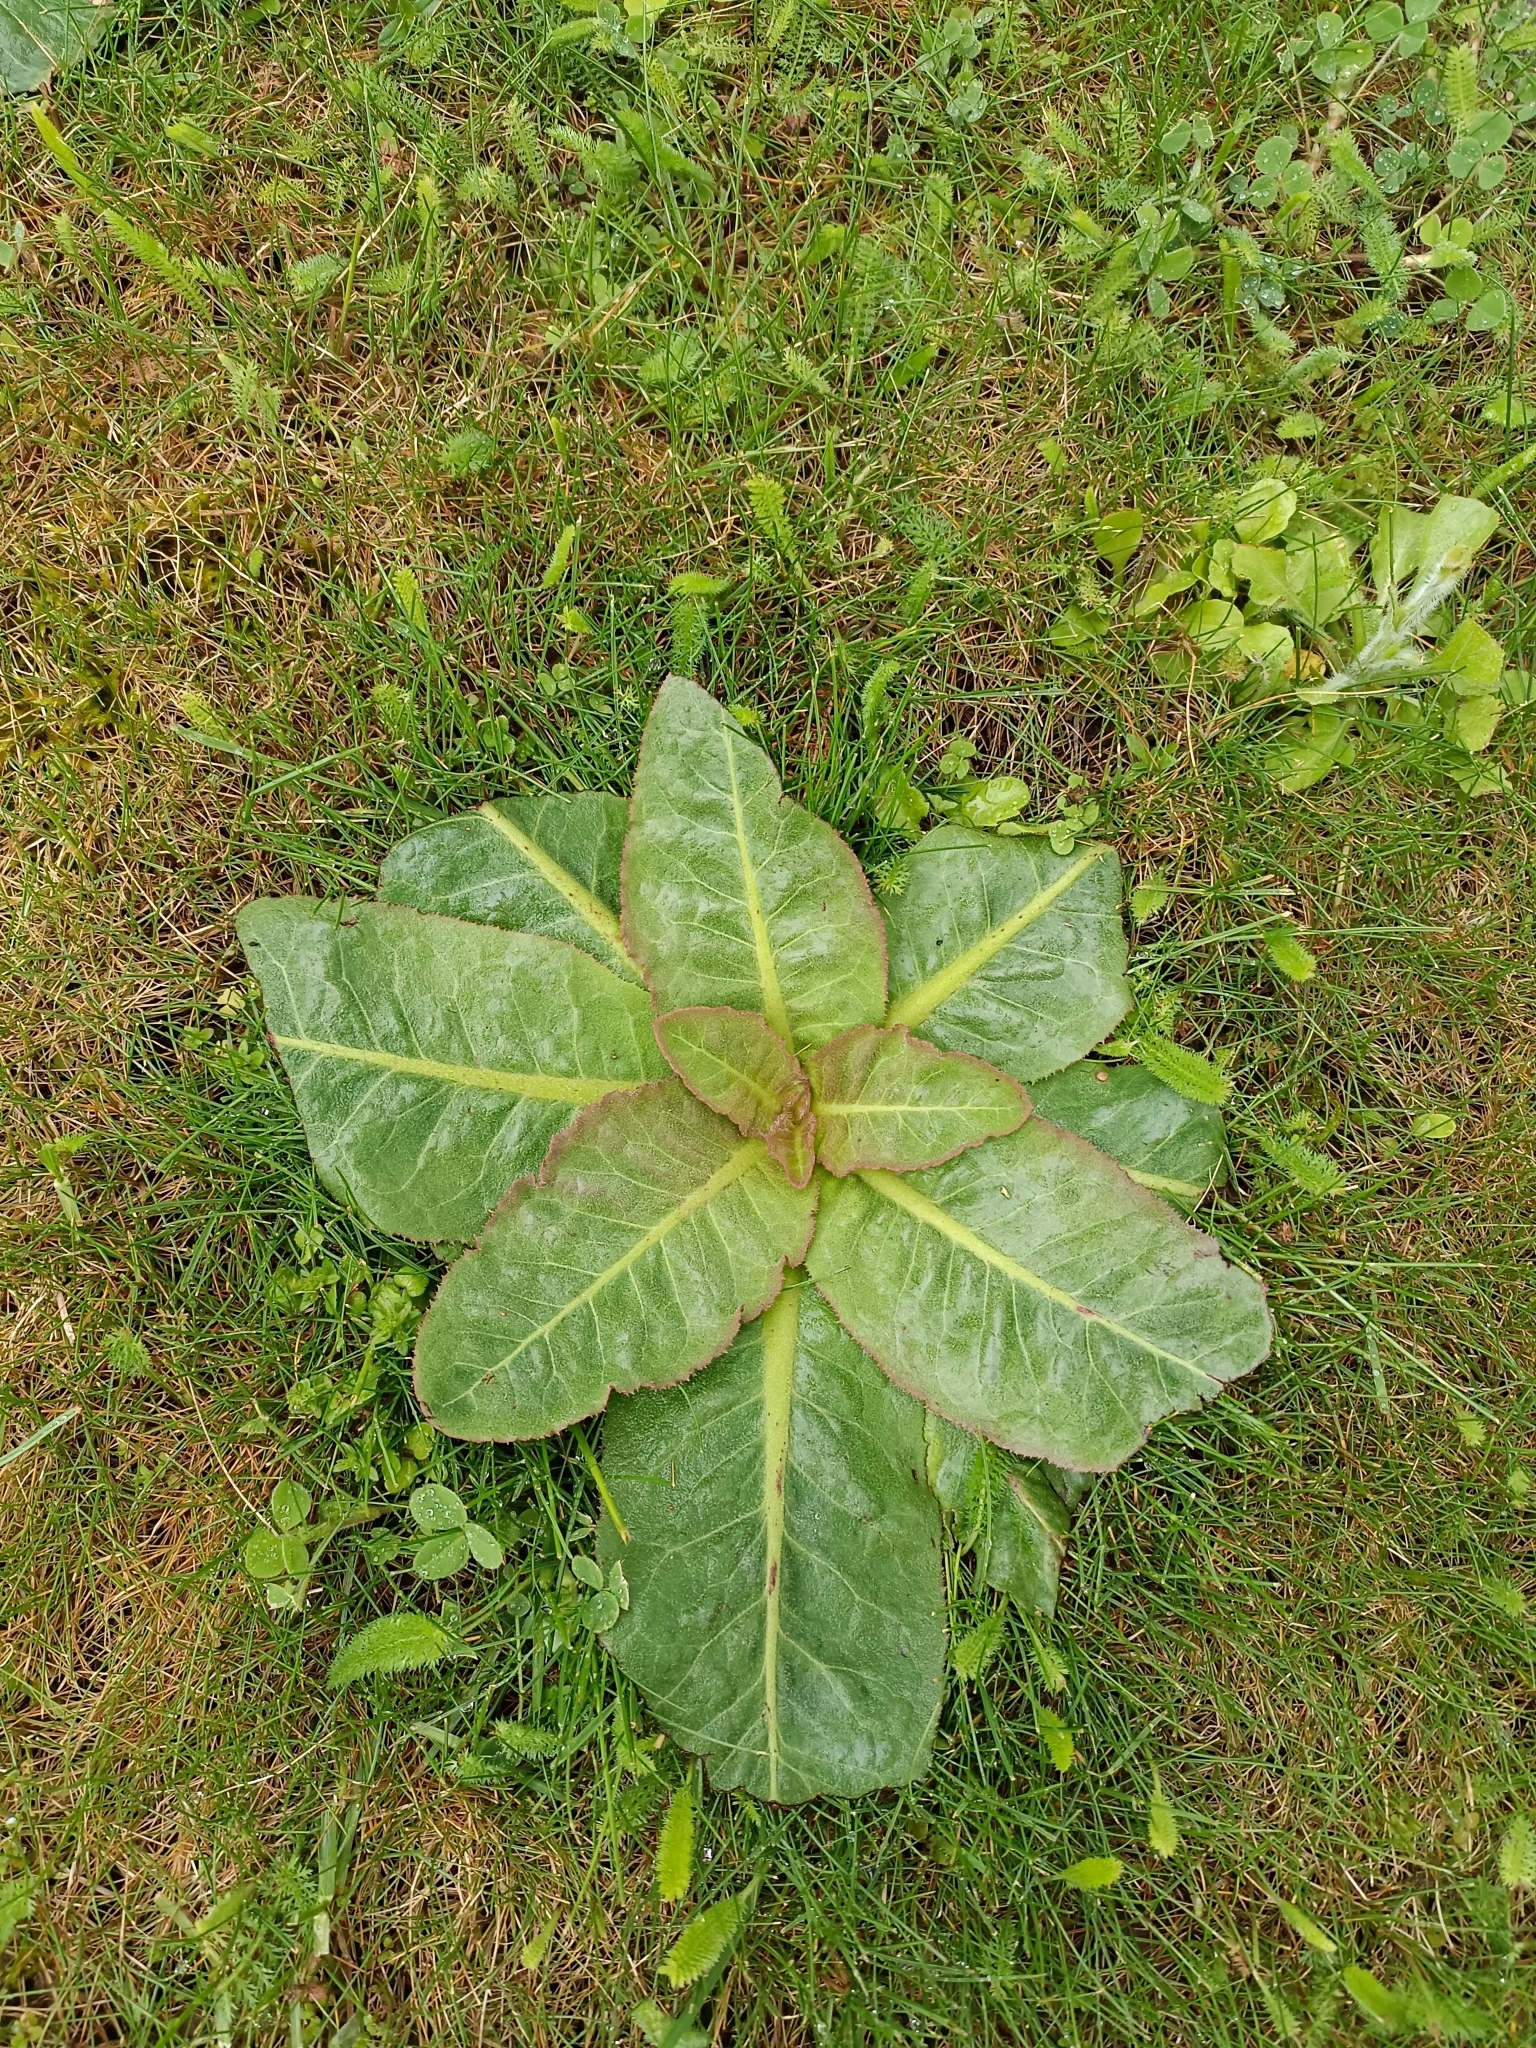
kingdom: Plantae
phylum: Tracheophyta
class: Magnoliopsida
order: Asterales
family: Asteraceae
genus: Taraxacum
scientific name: Taraxacum serotinum
